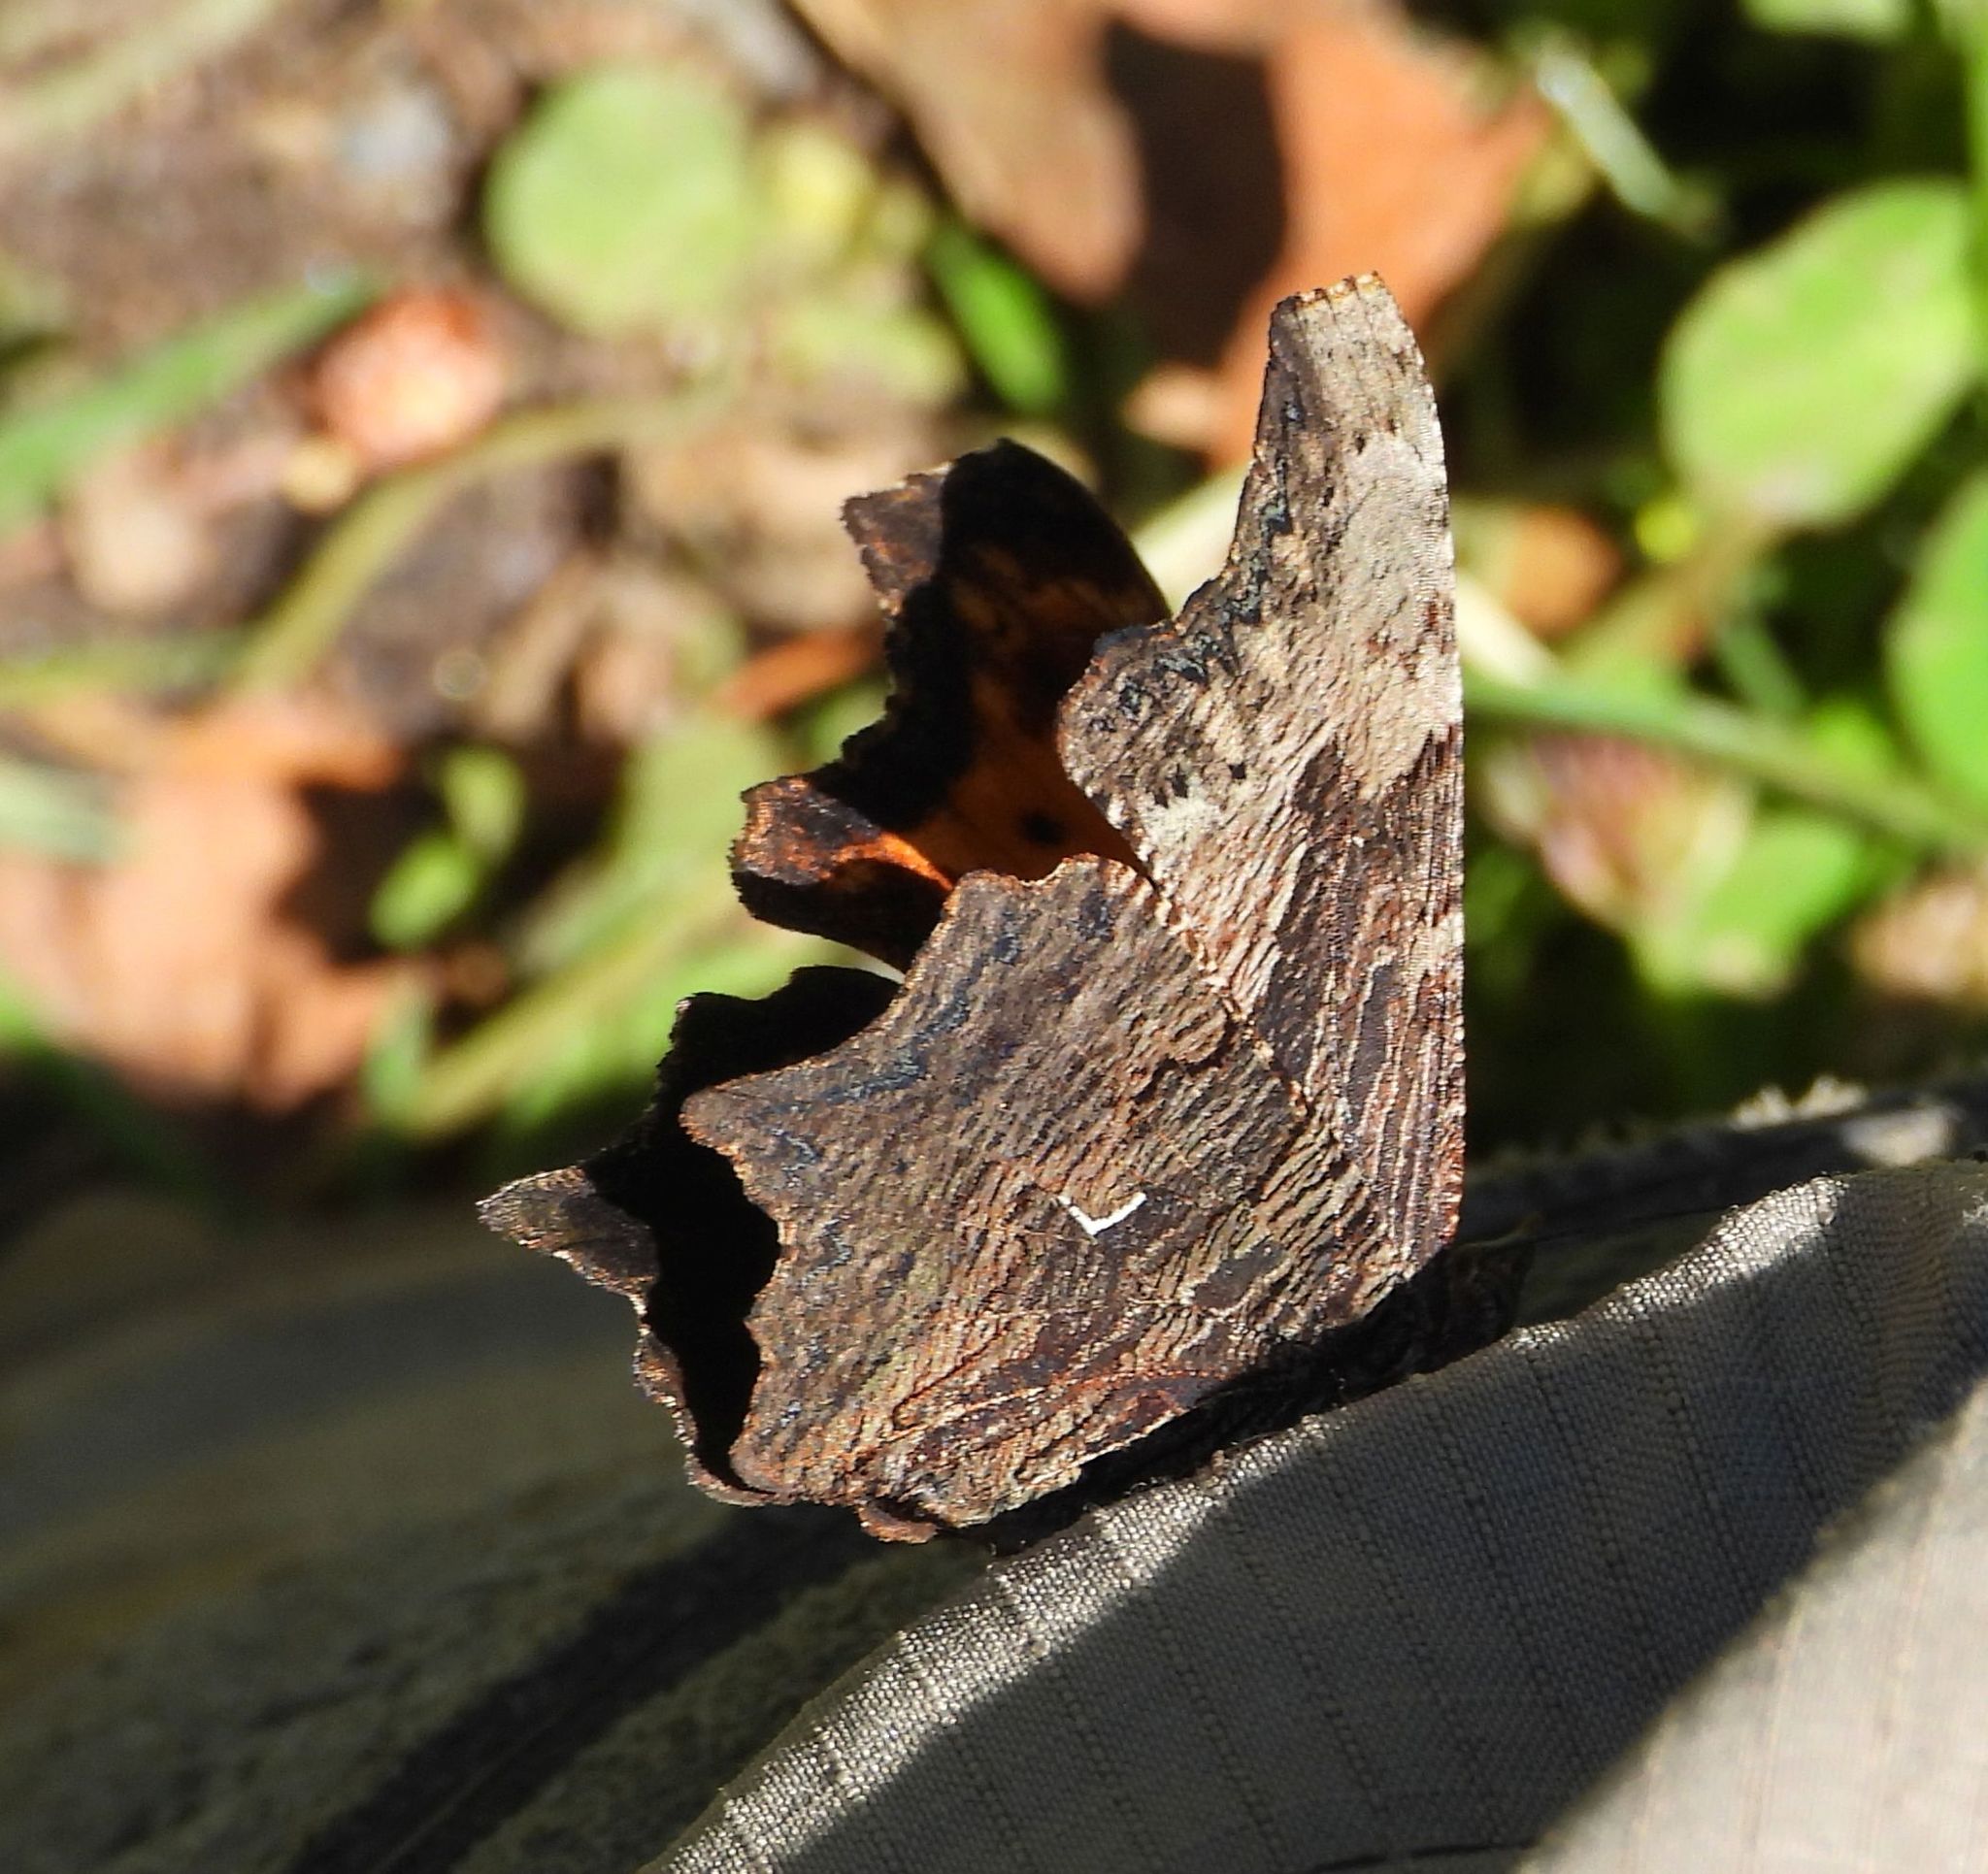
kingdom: Animalia
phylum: Arthropoda
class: Insecta
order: Lepidoptera
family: Nymphalidae
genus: Polygonia
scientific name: Polygonia progne
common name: Gray comma
